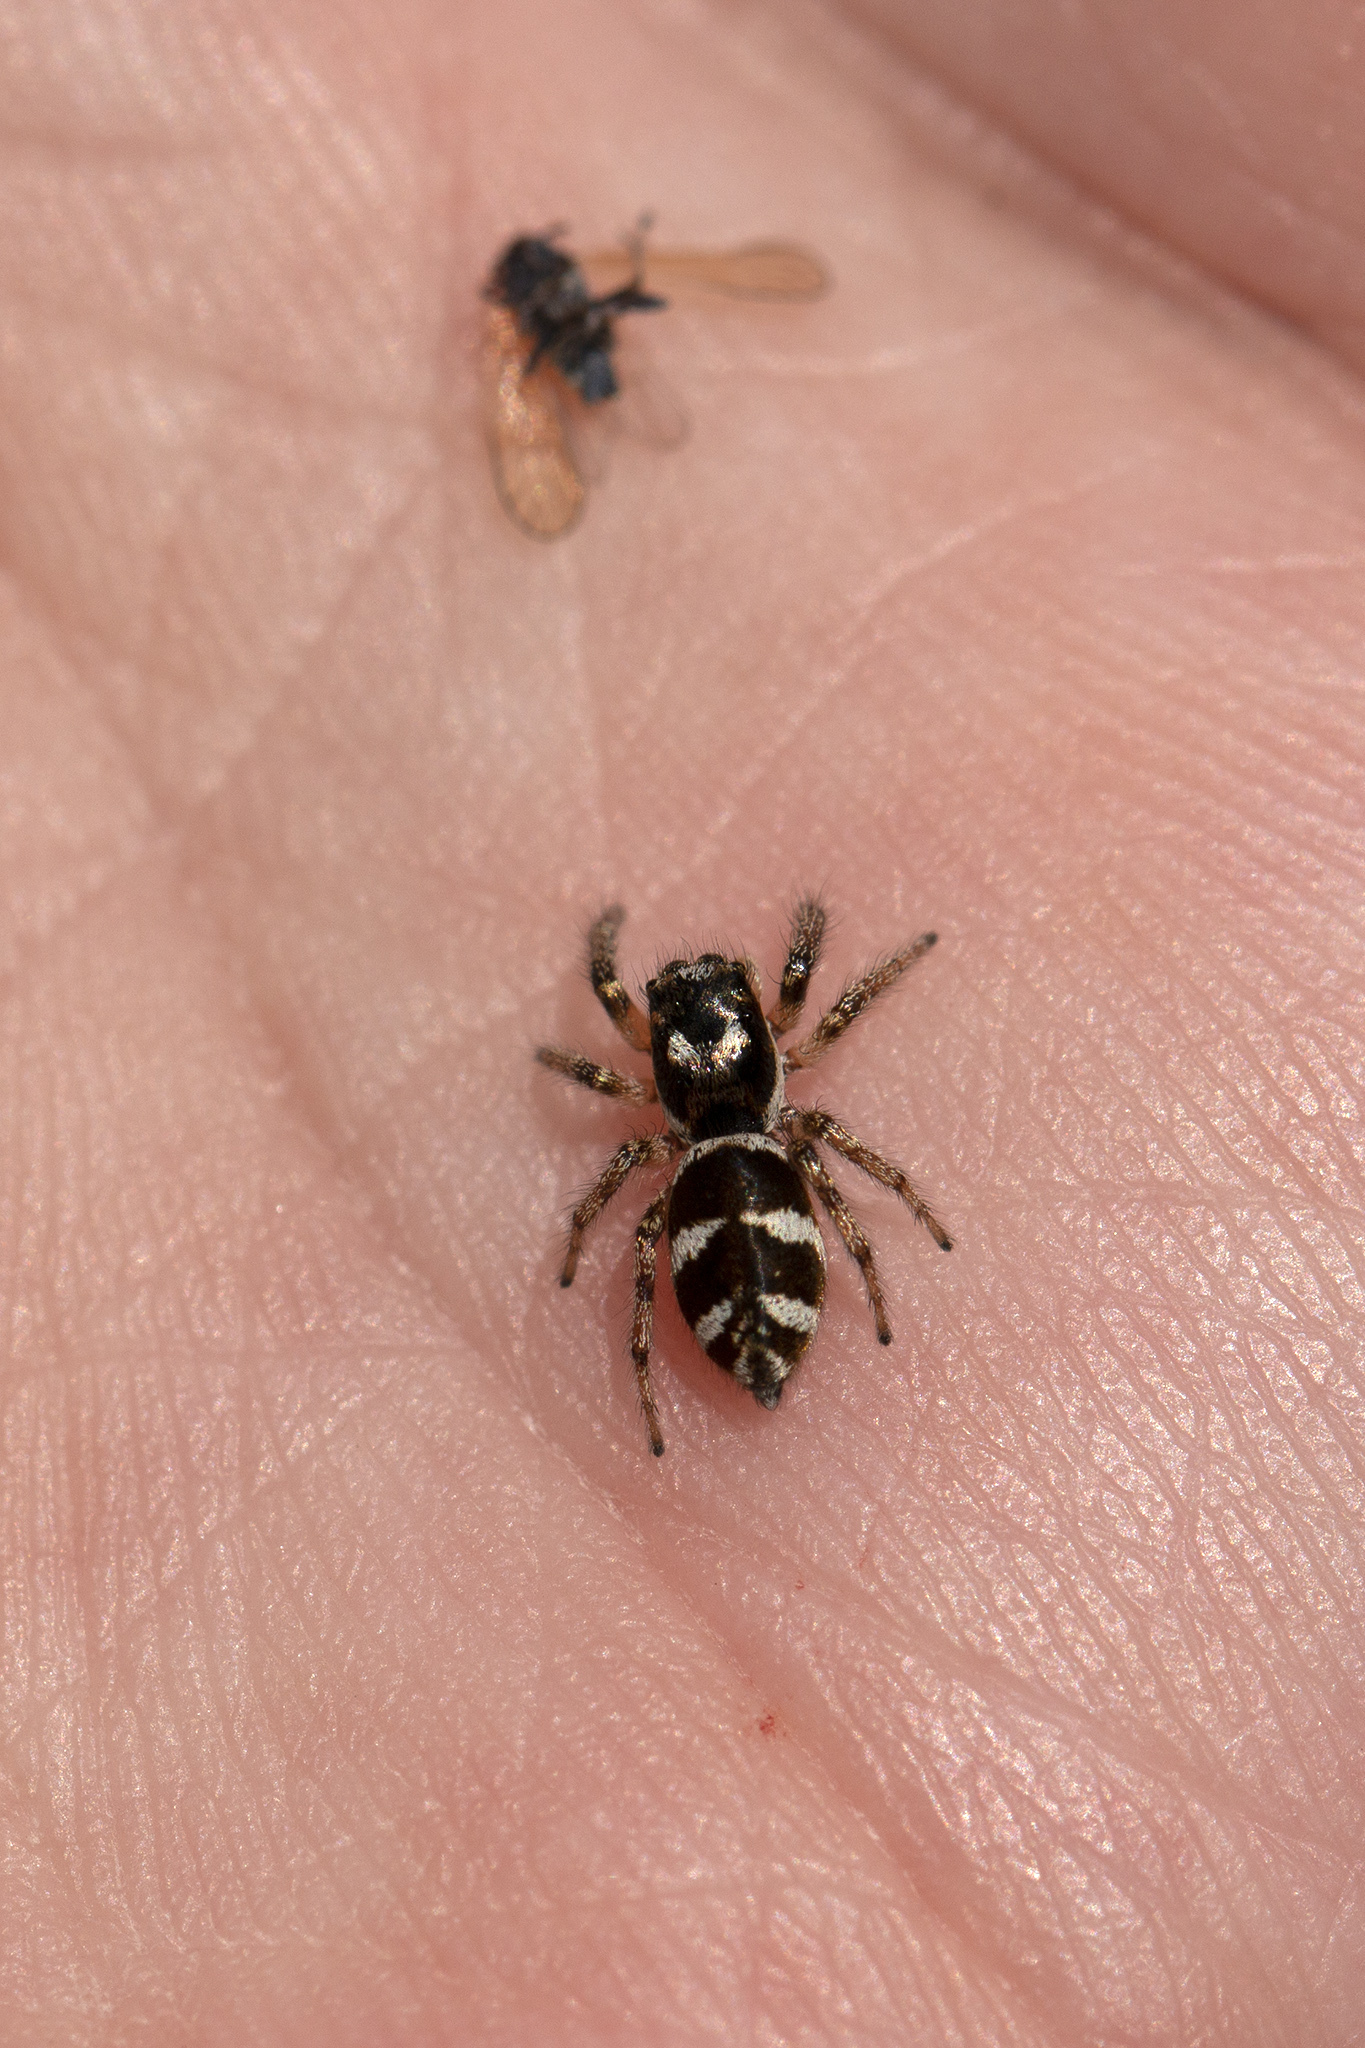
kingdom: Animalia
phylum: Arthropoda
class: Arachnida
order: Araneae
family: Salticidae
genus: Salticus
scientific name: Salticus scenicus
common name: Zebra jumper
